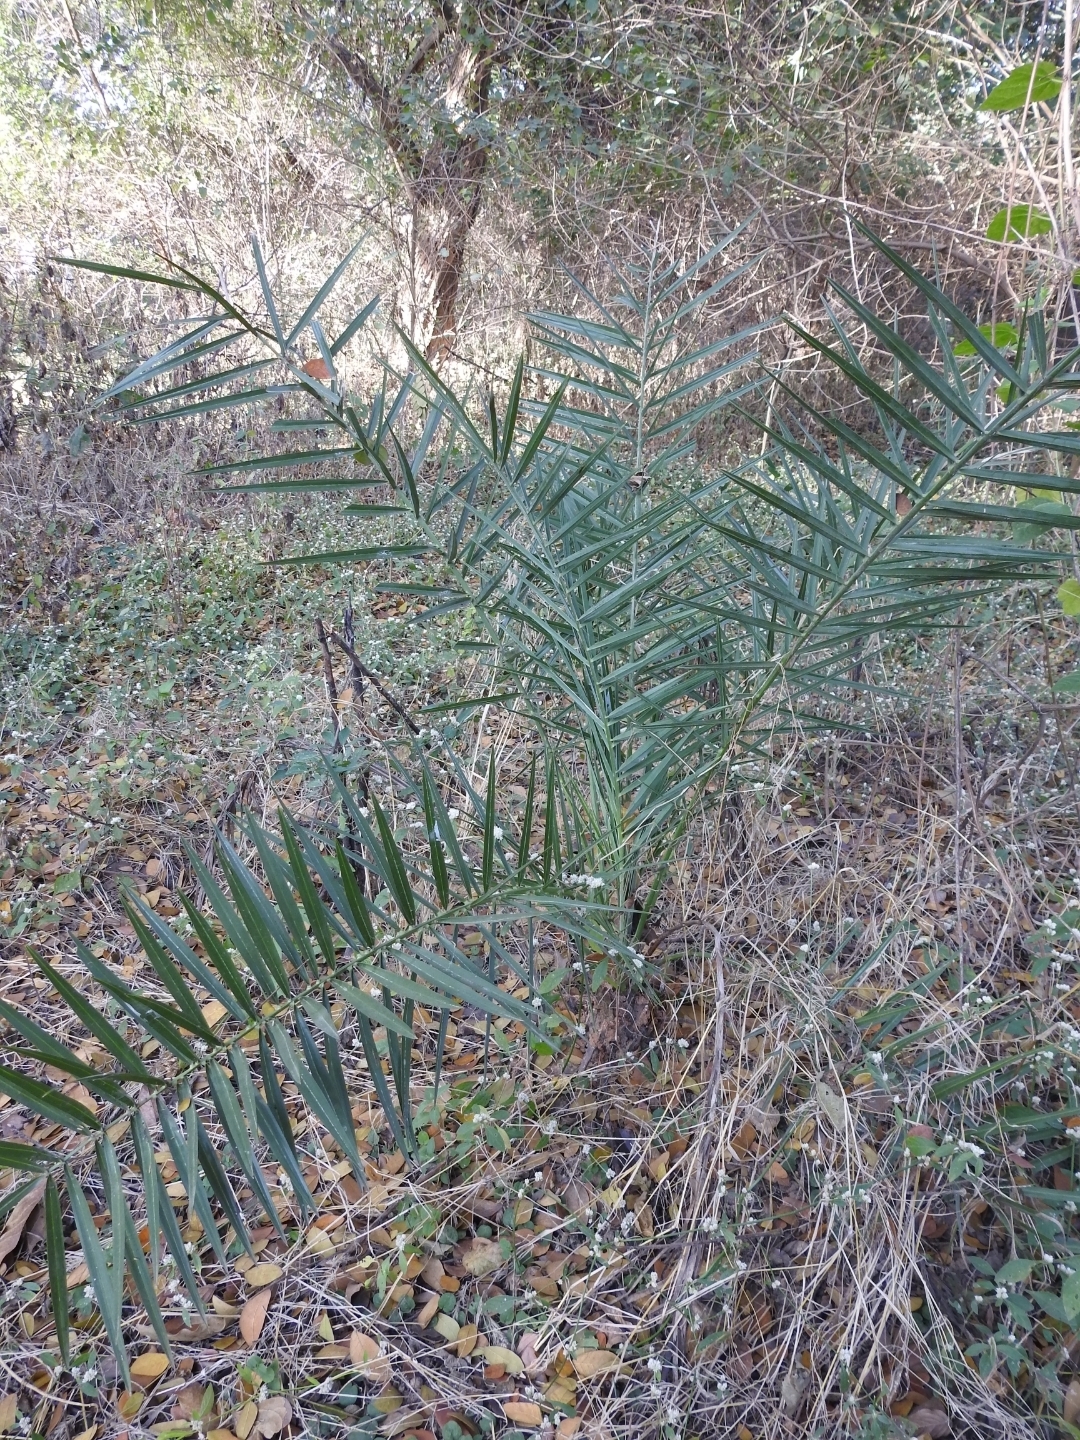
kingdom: Plantae
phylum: Tracheophyta
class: Liliopsida
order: Arecales
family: Arecaceae
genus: Phoenix
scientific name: Phoenix loureiroi
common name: Loureiro's palm
